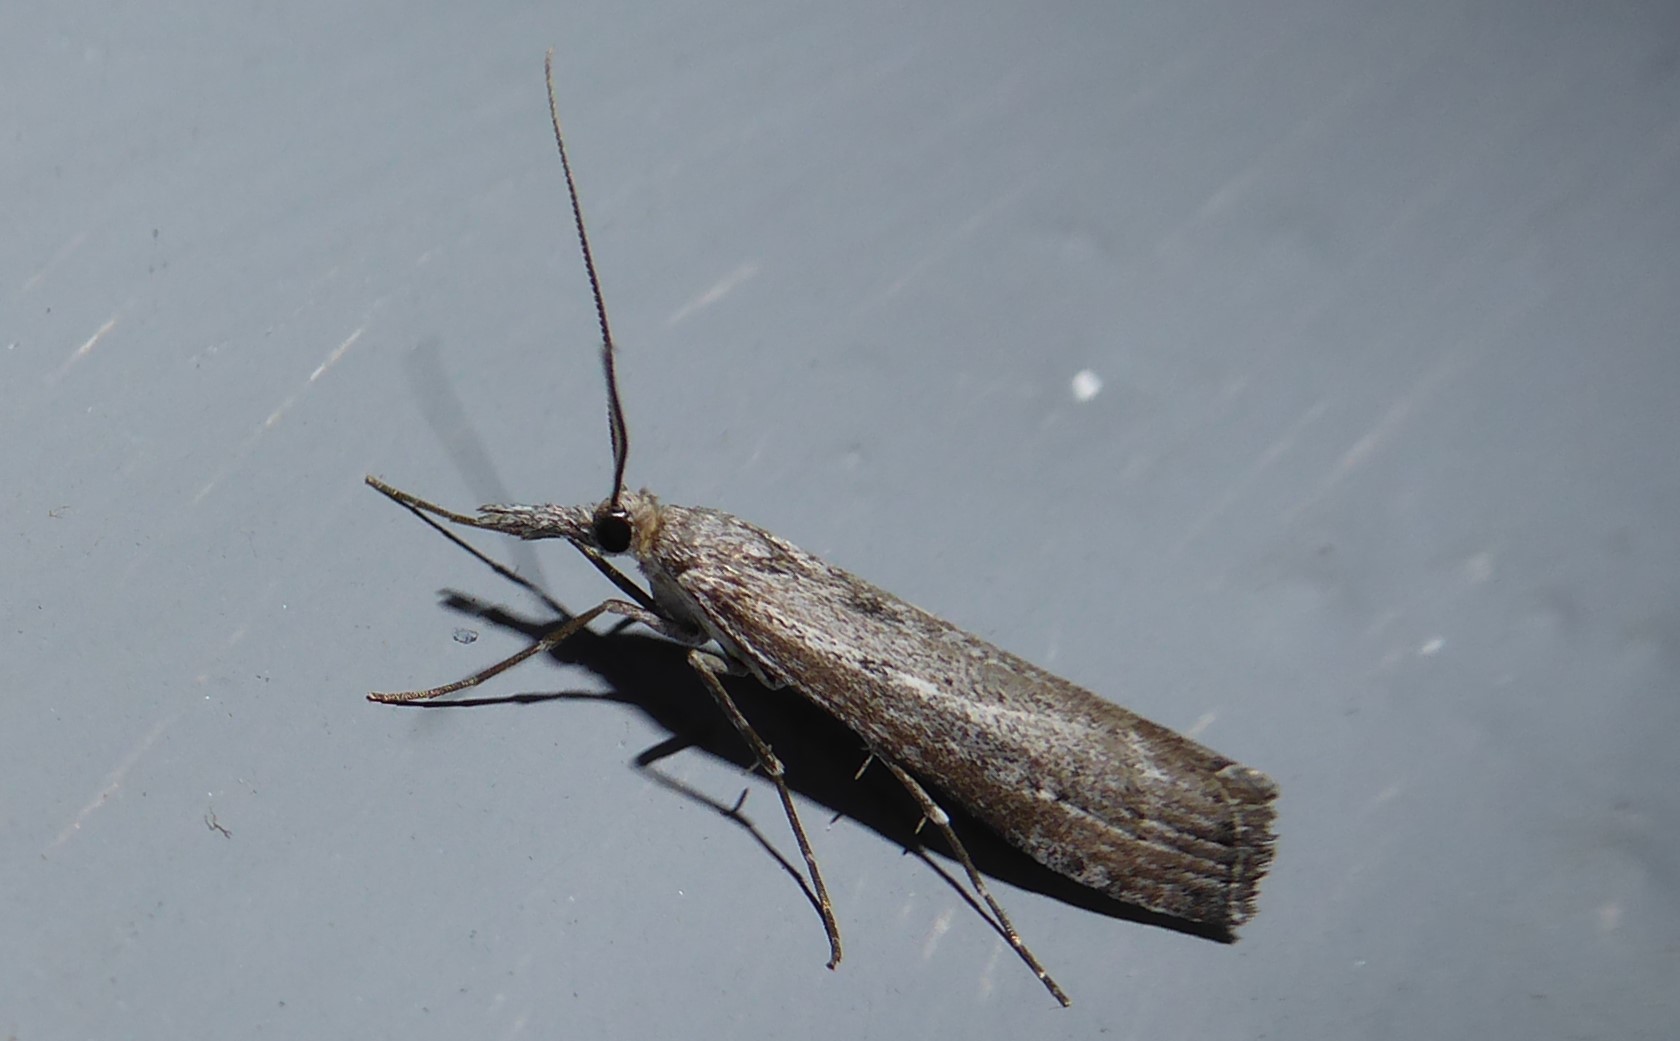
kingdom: Animalia
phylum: Arthropoda
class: Insecta
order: Lepidoptera
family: Crambidae
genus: Orocrambus
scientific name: Orocrambus cyclopicus
